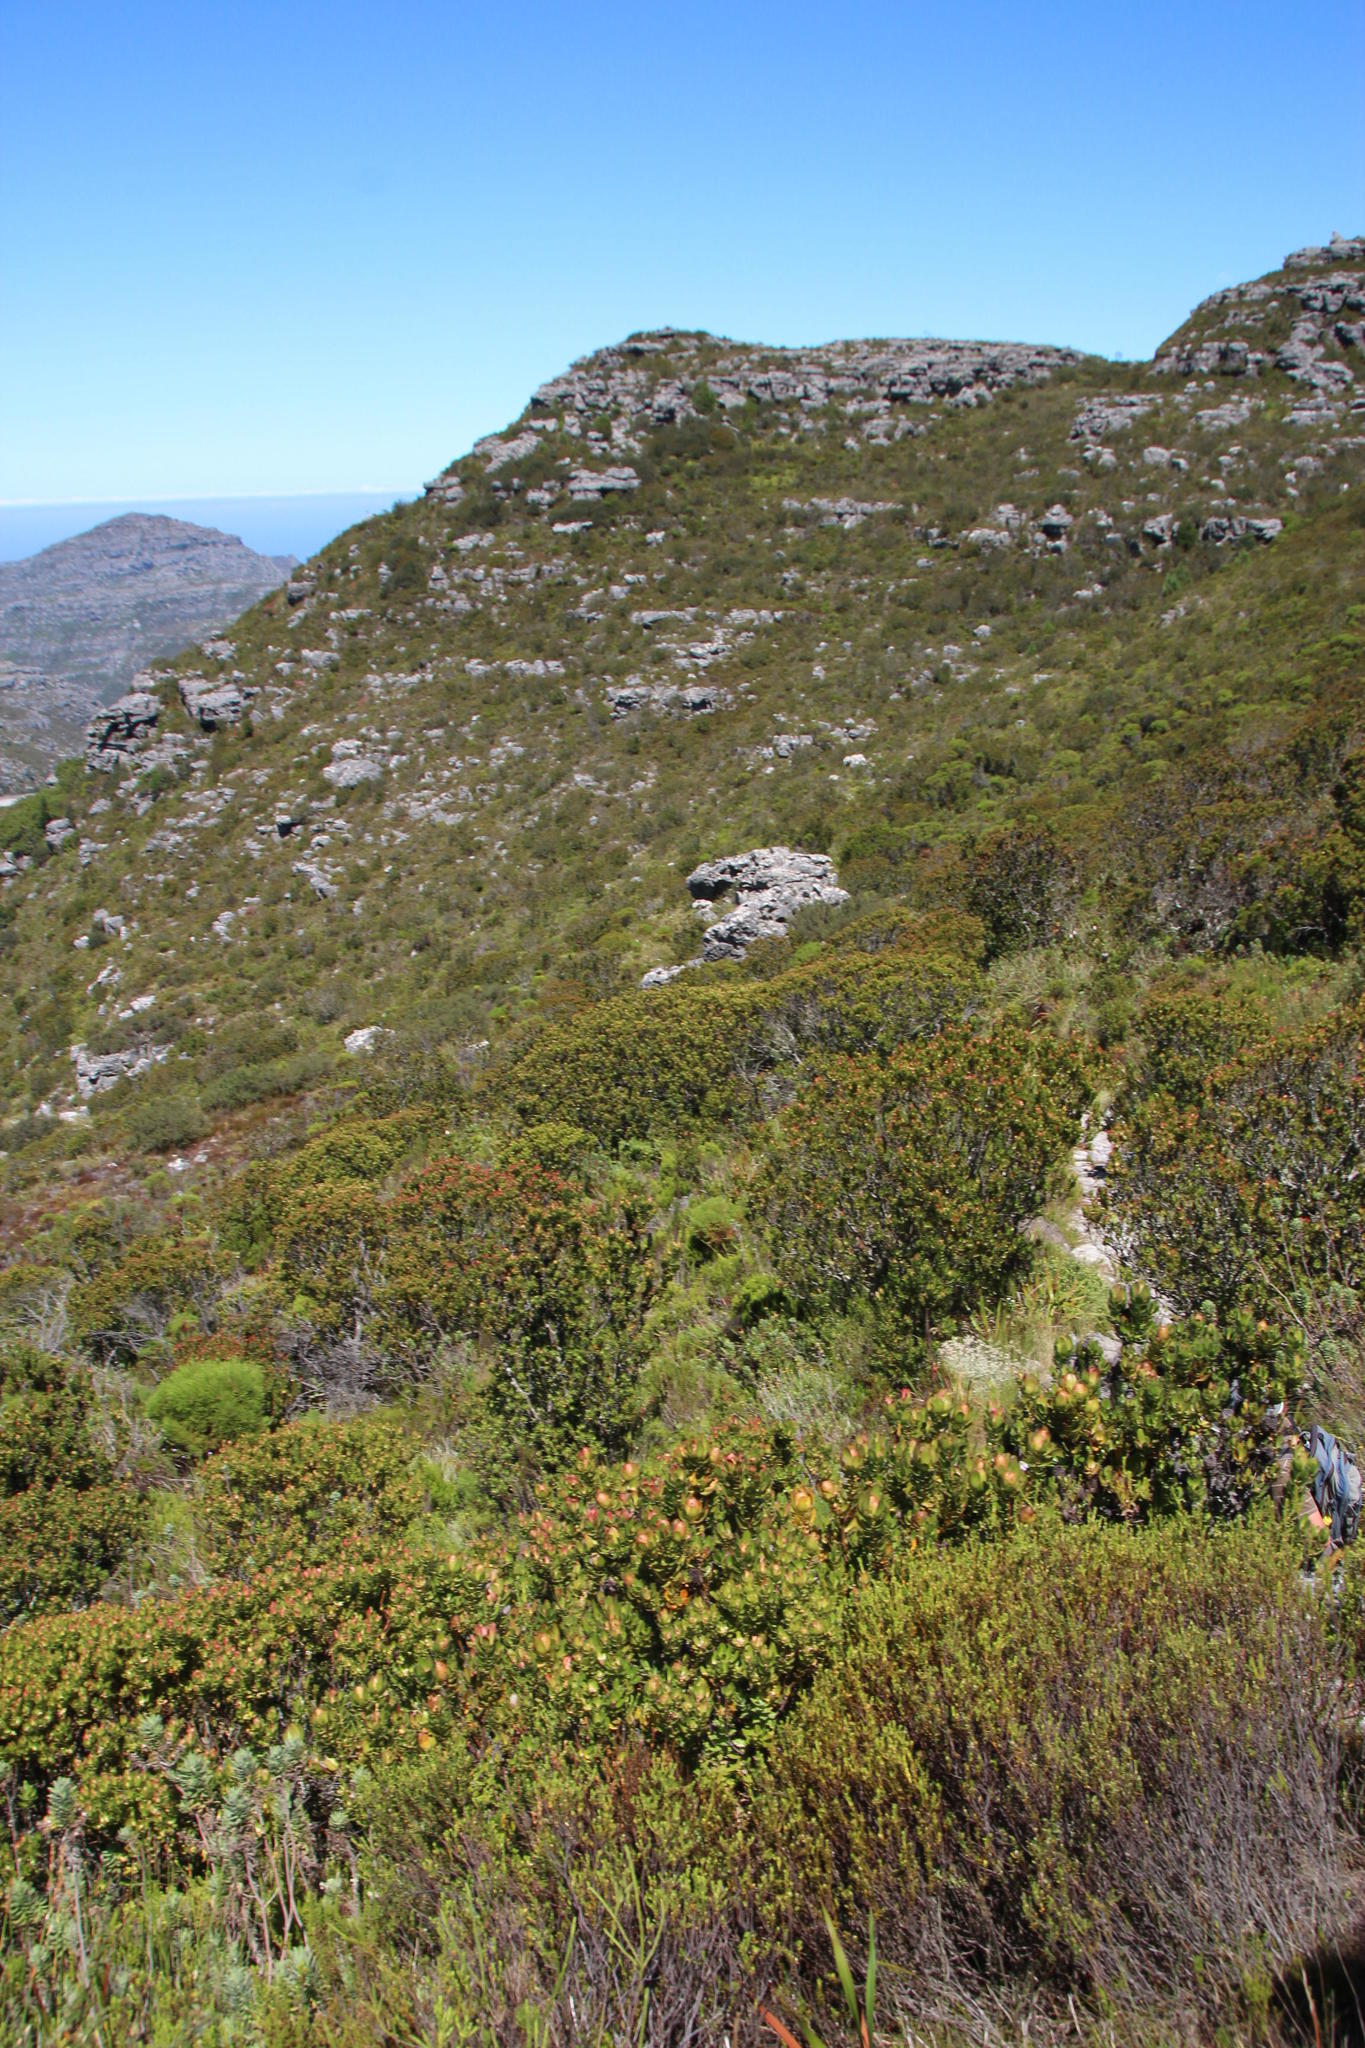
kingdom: Plantae
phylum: Tracheophyta
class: Magnoliopsida
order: Proteales
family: Proteaceae
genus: Leucadendron
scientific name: Leucadendron strobilinum
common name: Mountain rose
